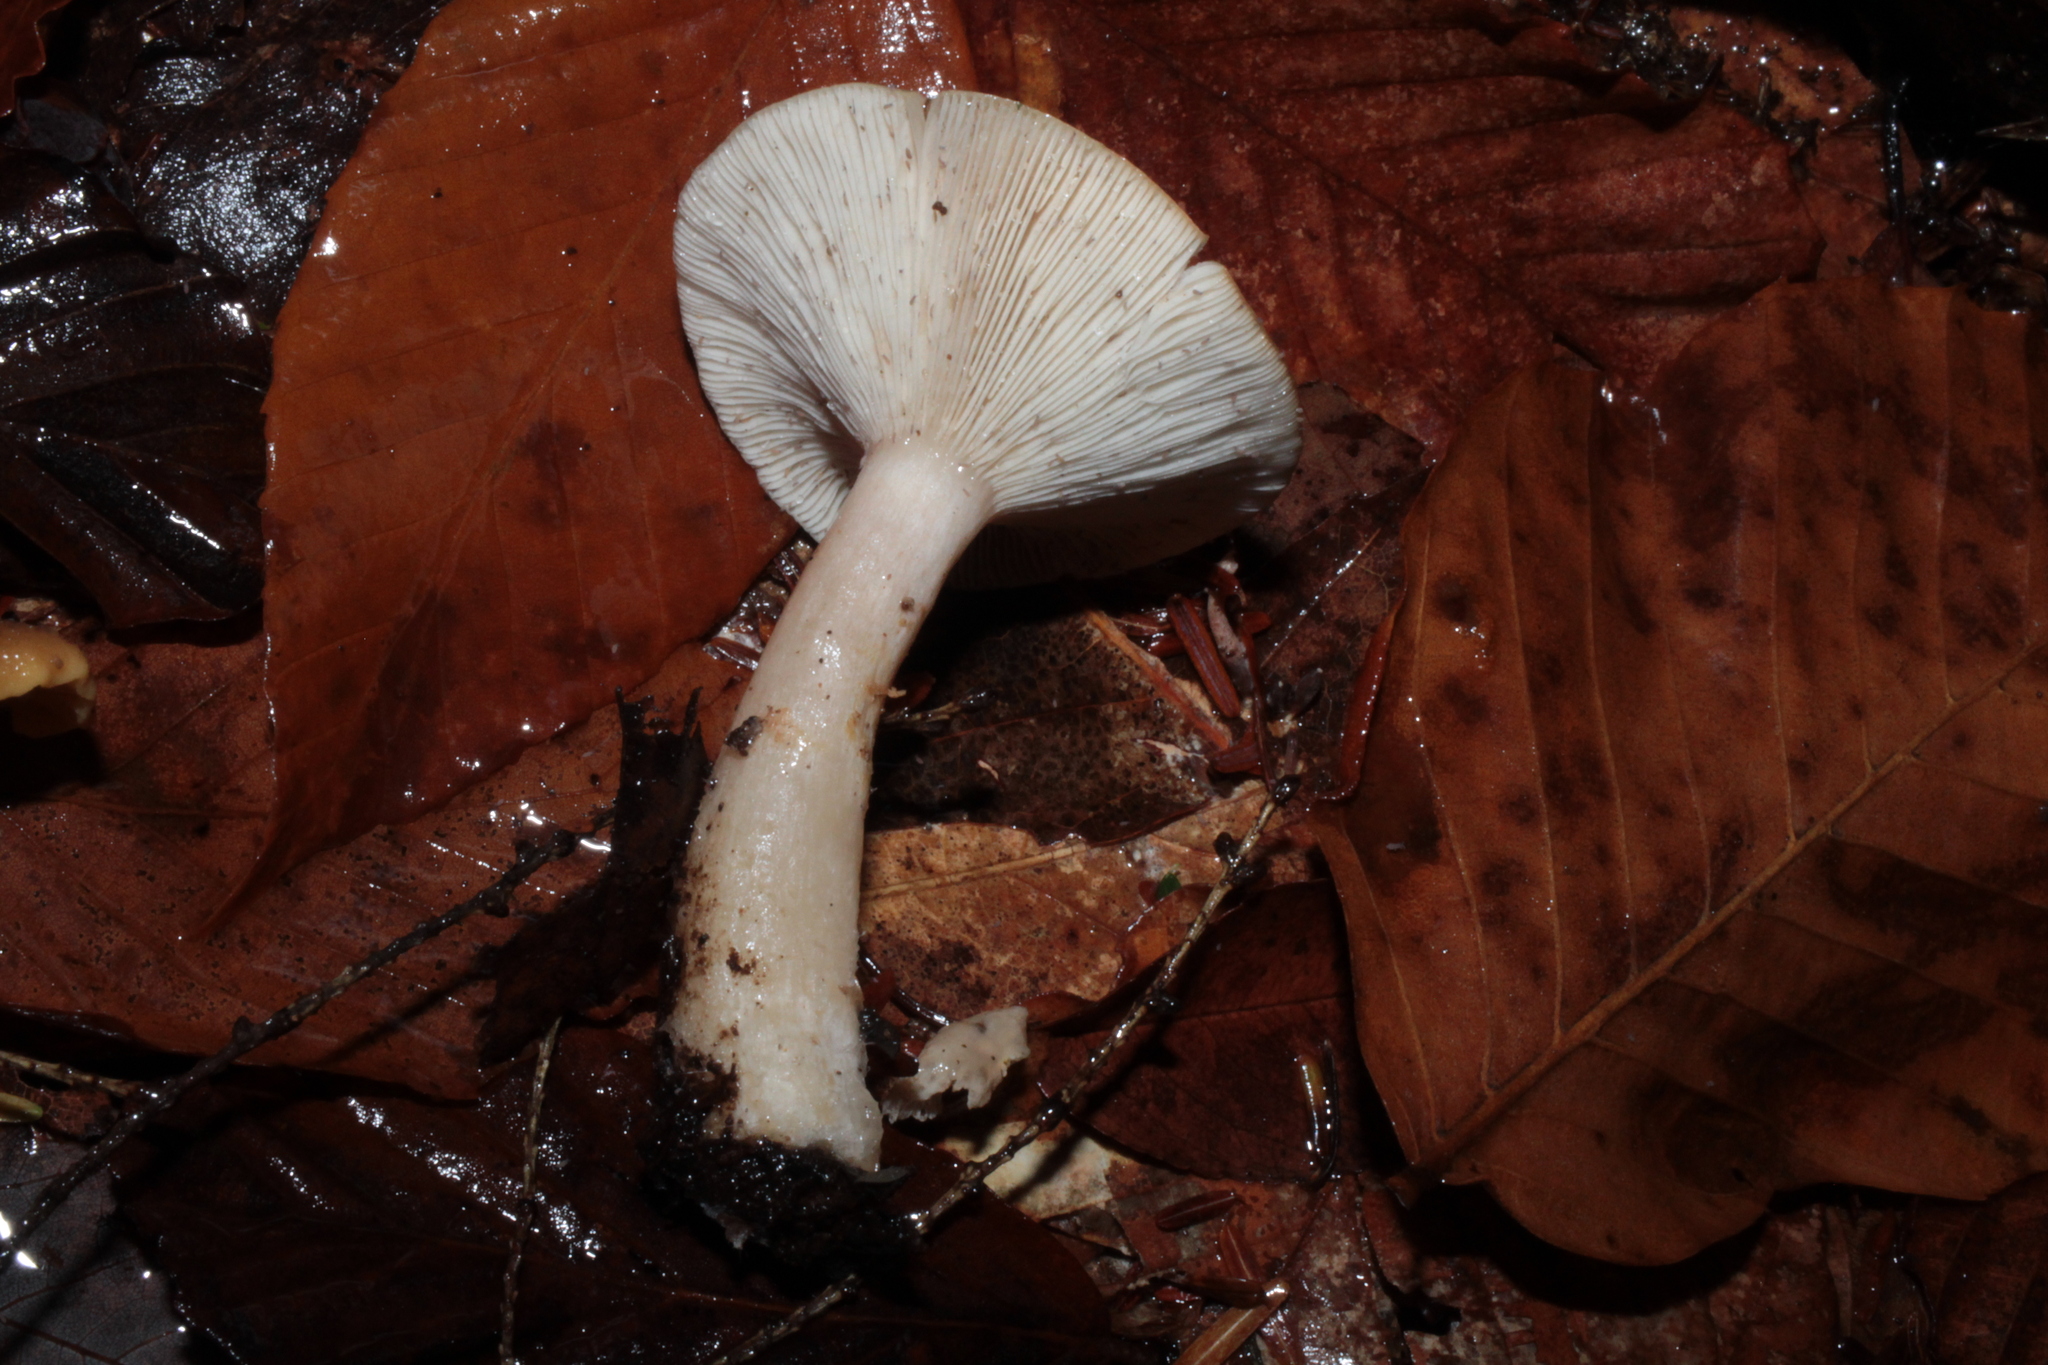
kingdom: Fungi
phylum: Basidiomycota
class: Agaricomycetes
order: Agaricales
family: Hygrophoraceae
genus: Ampulloclitocybe
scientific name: Ampulloclitocybe clavipes
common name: Club foot
